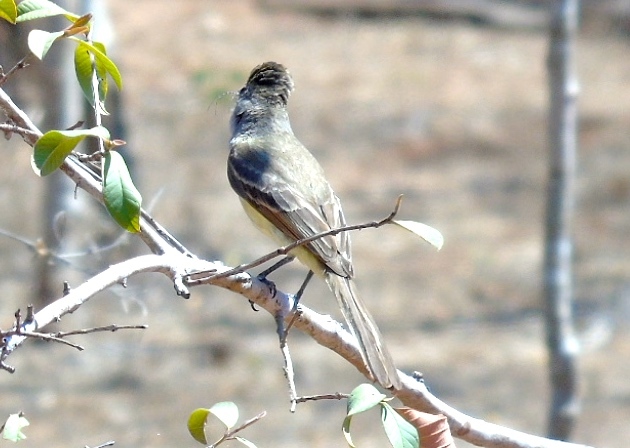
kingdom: Animalia
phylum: Chordata
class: Aves
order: Passeriformes
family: Tyrannidae
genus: Myiarchus
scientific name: Myiarchus
